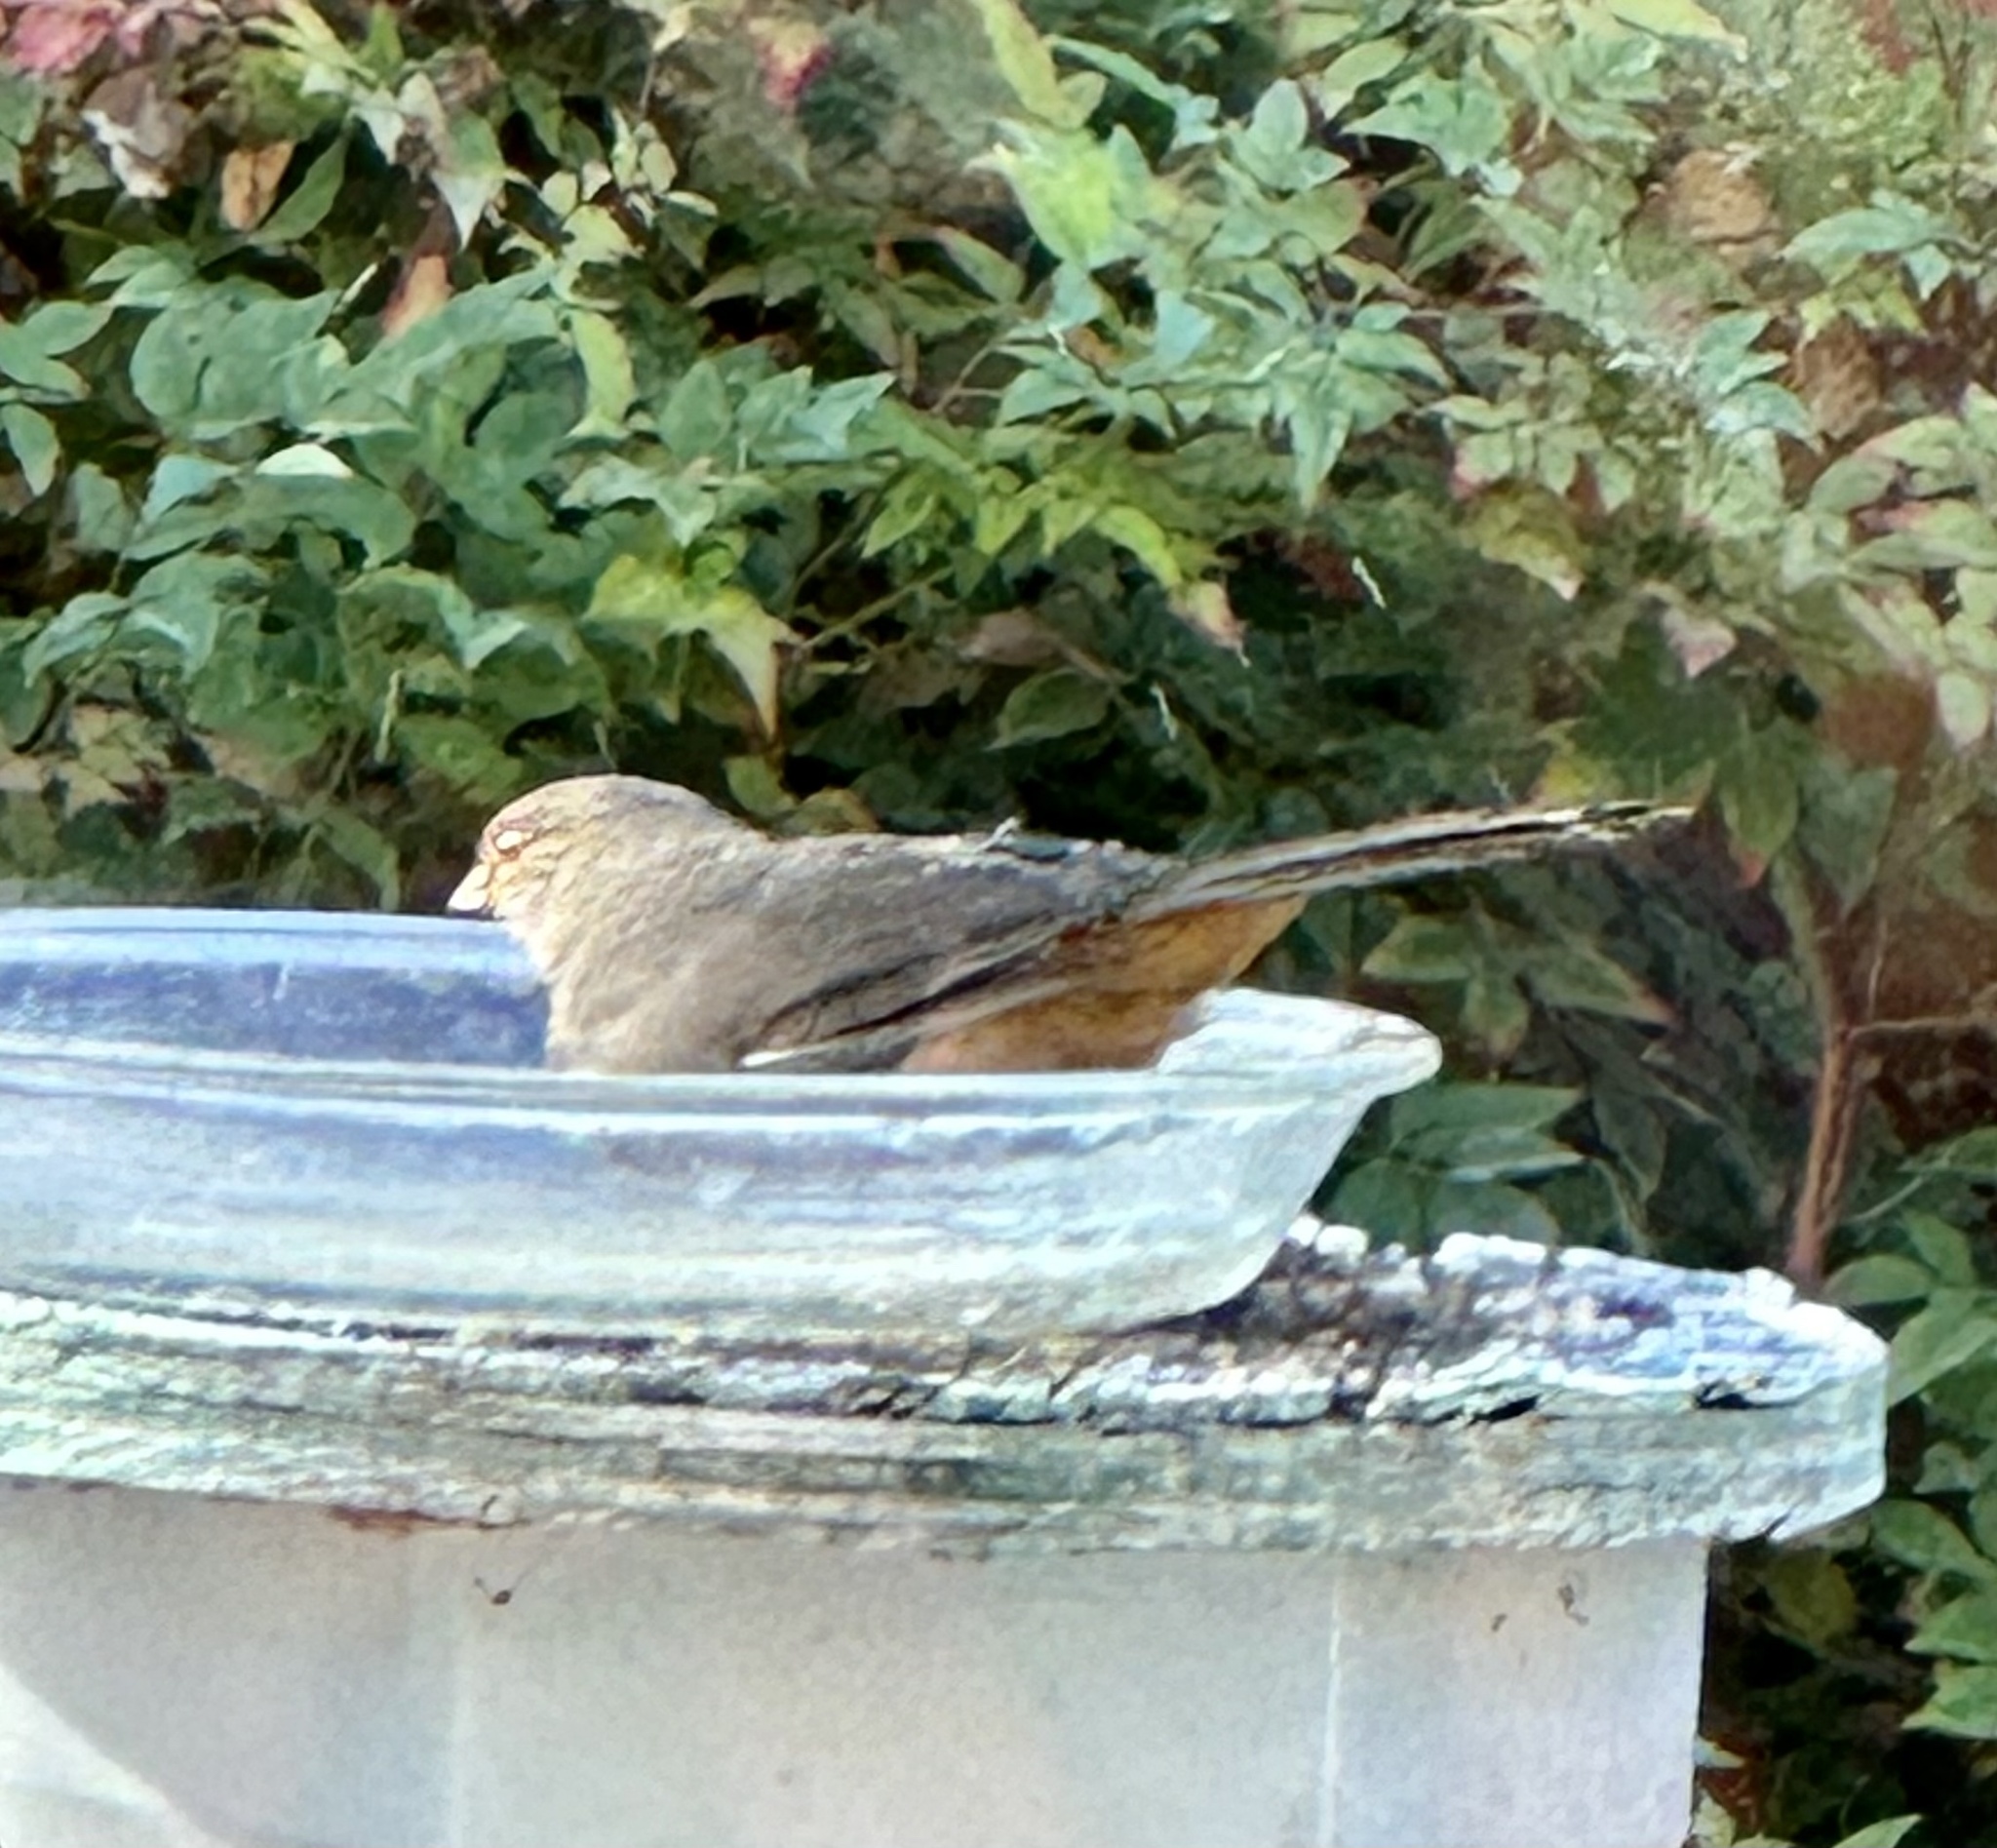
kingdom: Animalia
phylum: Chordata
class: Aves
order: Passeriformes
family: Passerellidae
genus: Melozone
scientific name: Melozone crissalis
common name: California towhee
